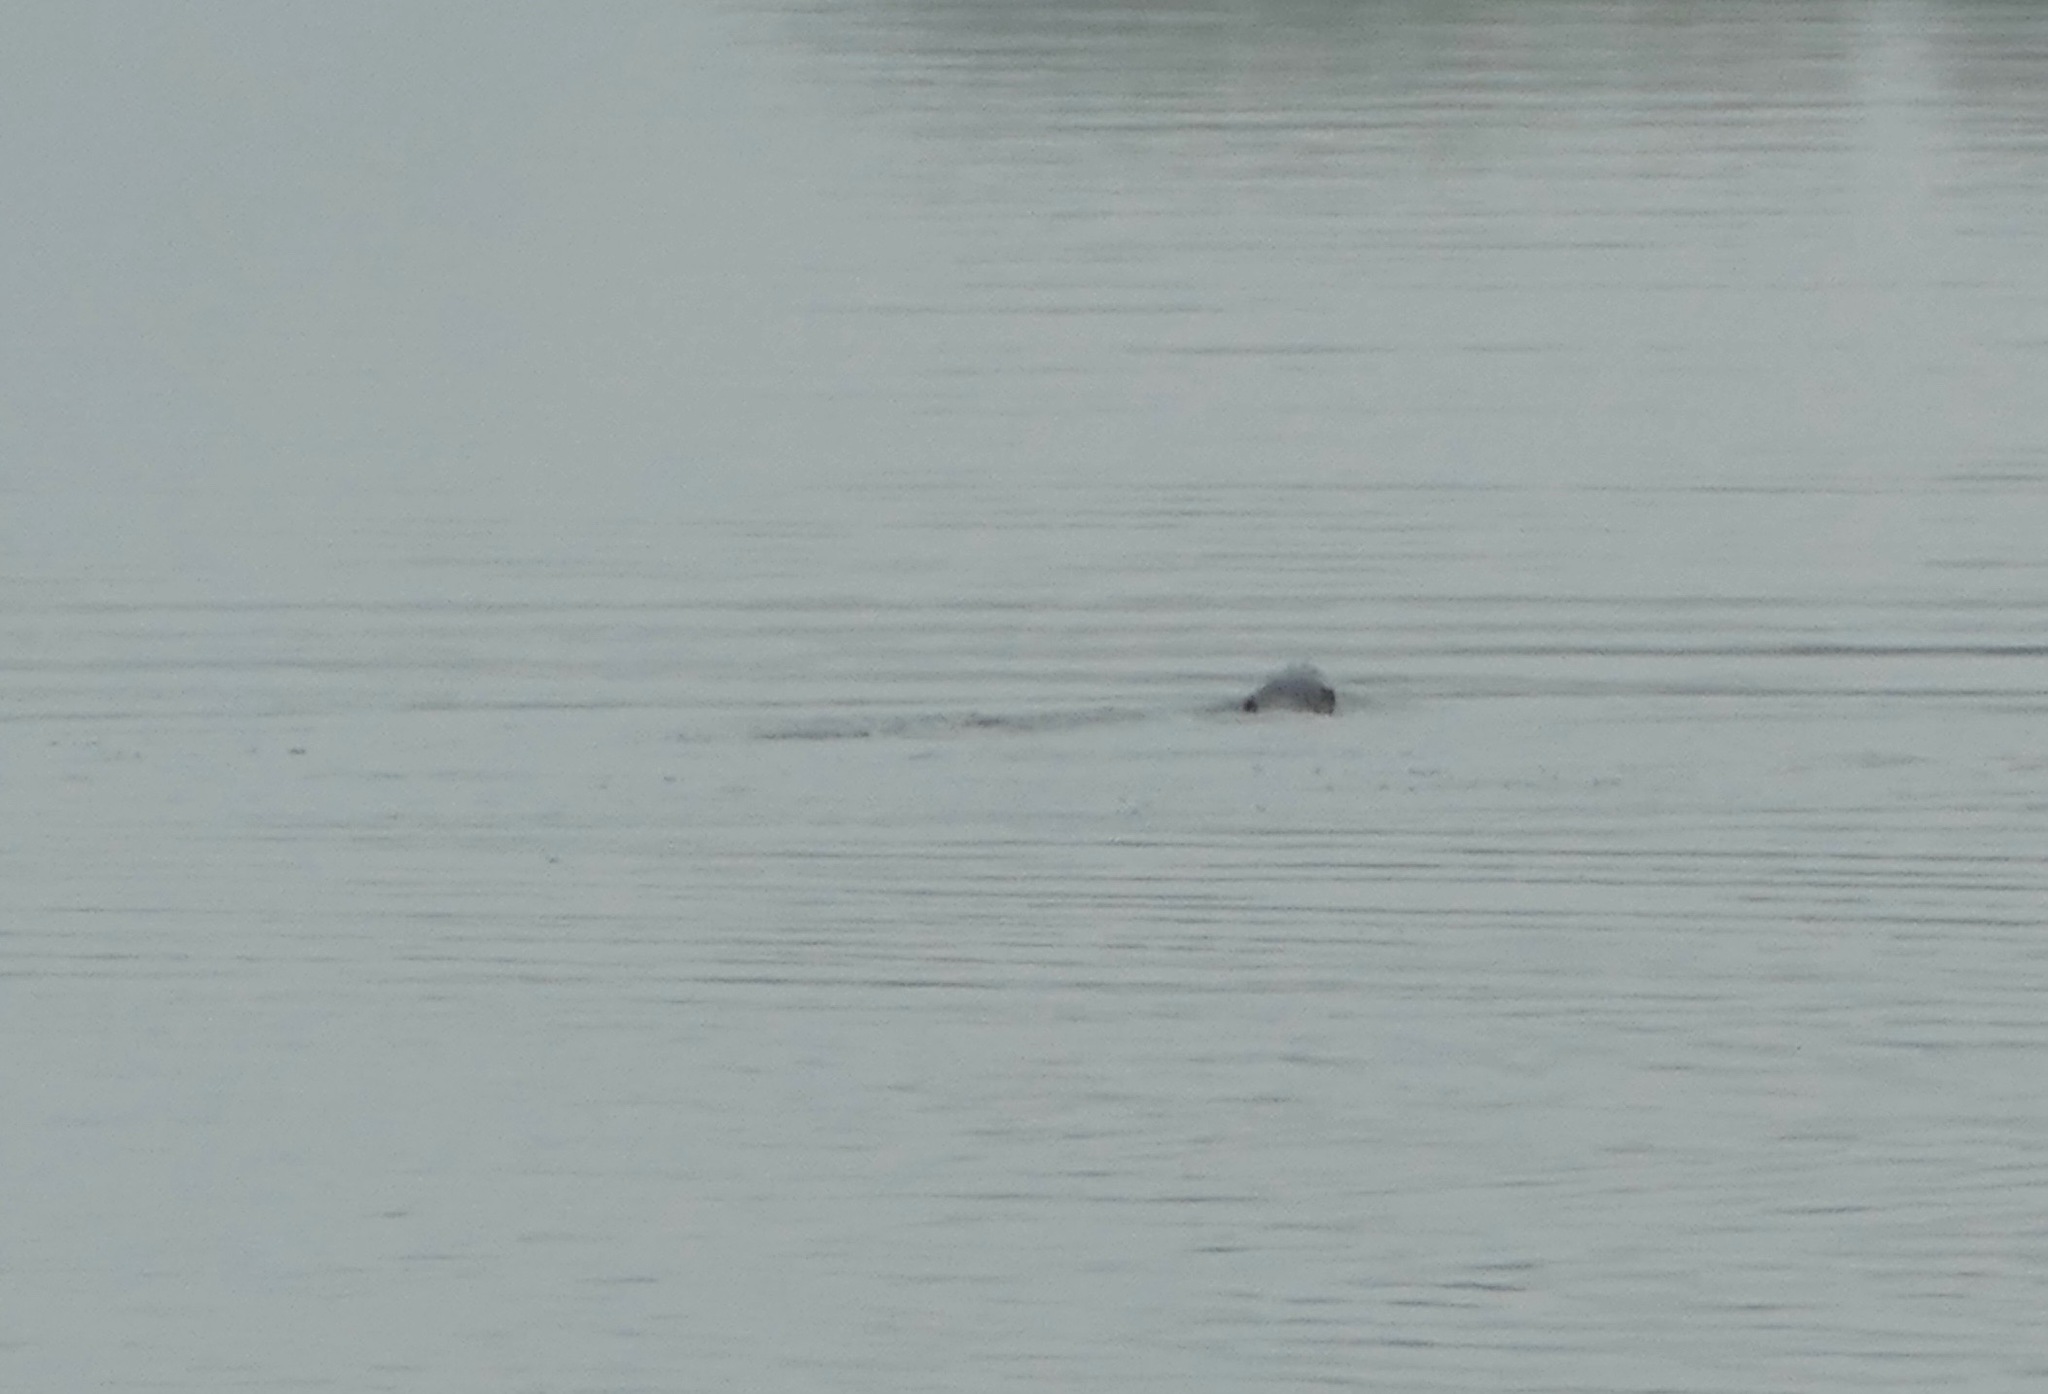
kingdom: Animalia
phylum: Chordata
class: Mammalia
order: Carnivora
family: Mustelidae
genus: Lontra
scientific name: Lontra canadensis
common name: North american river otter
